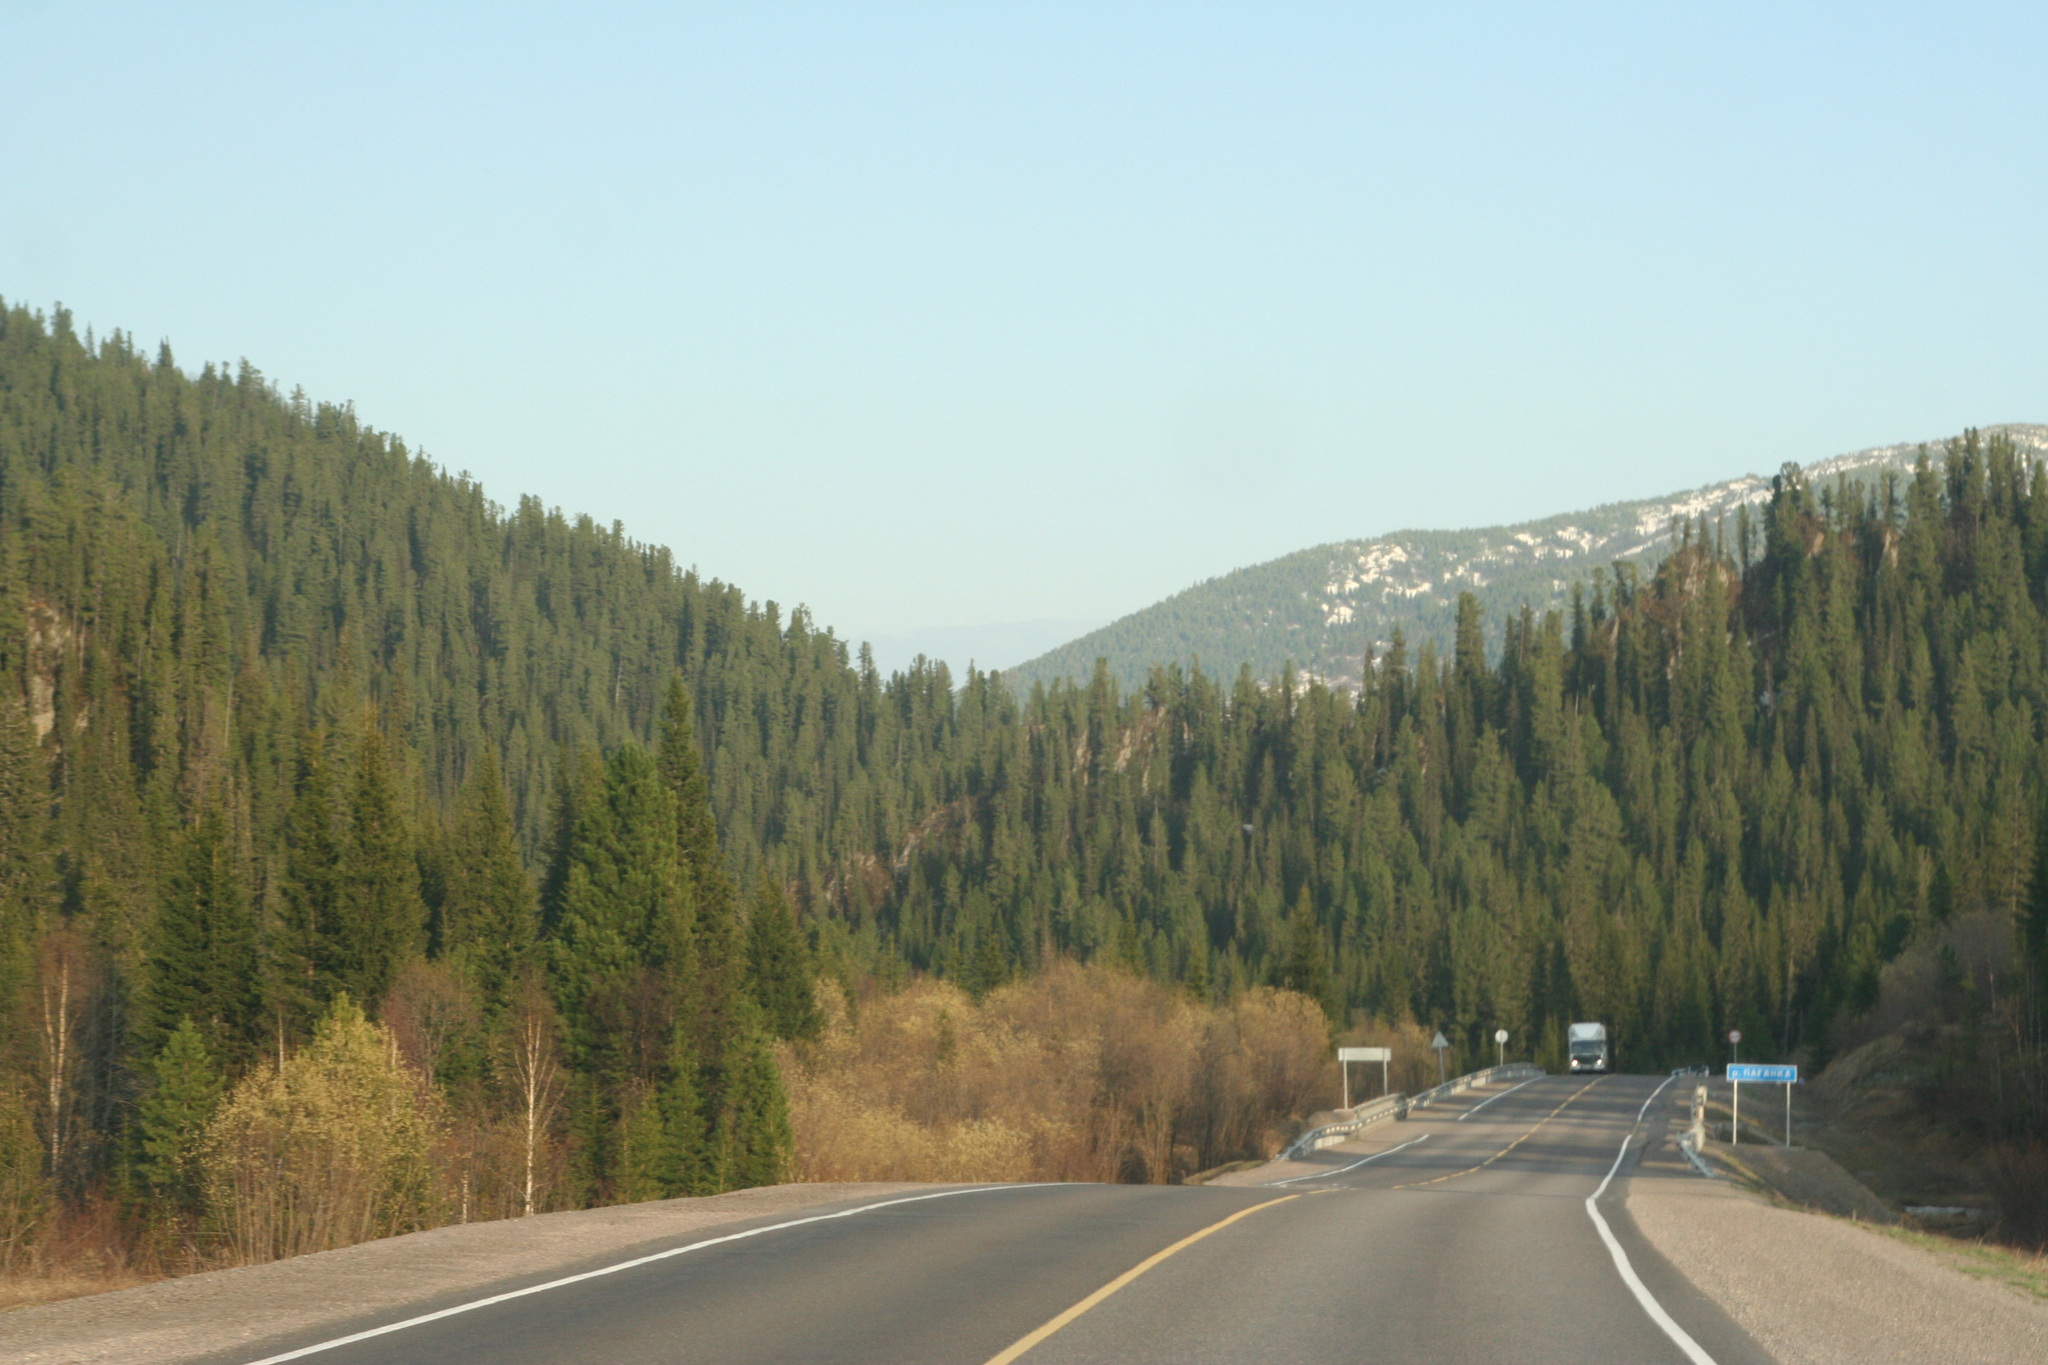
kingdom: Plantae
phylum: Tracheophyta
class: Pinopsida
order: Pinales
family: Pinaceae
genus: Picea
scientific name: Picea obovata
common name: Siberian spruce
